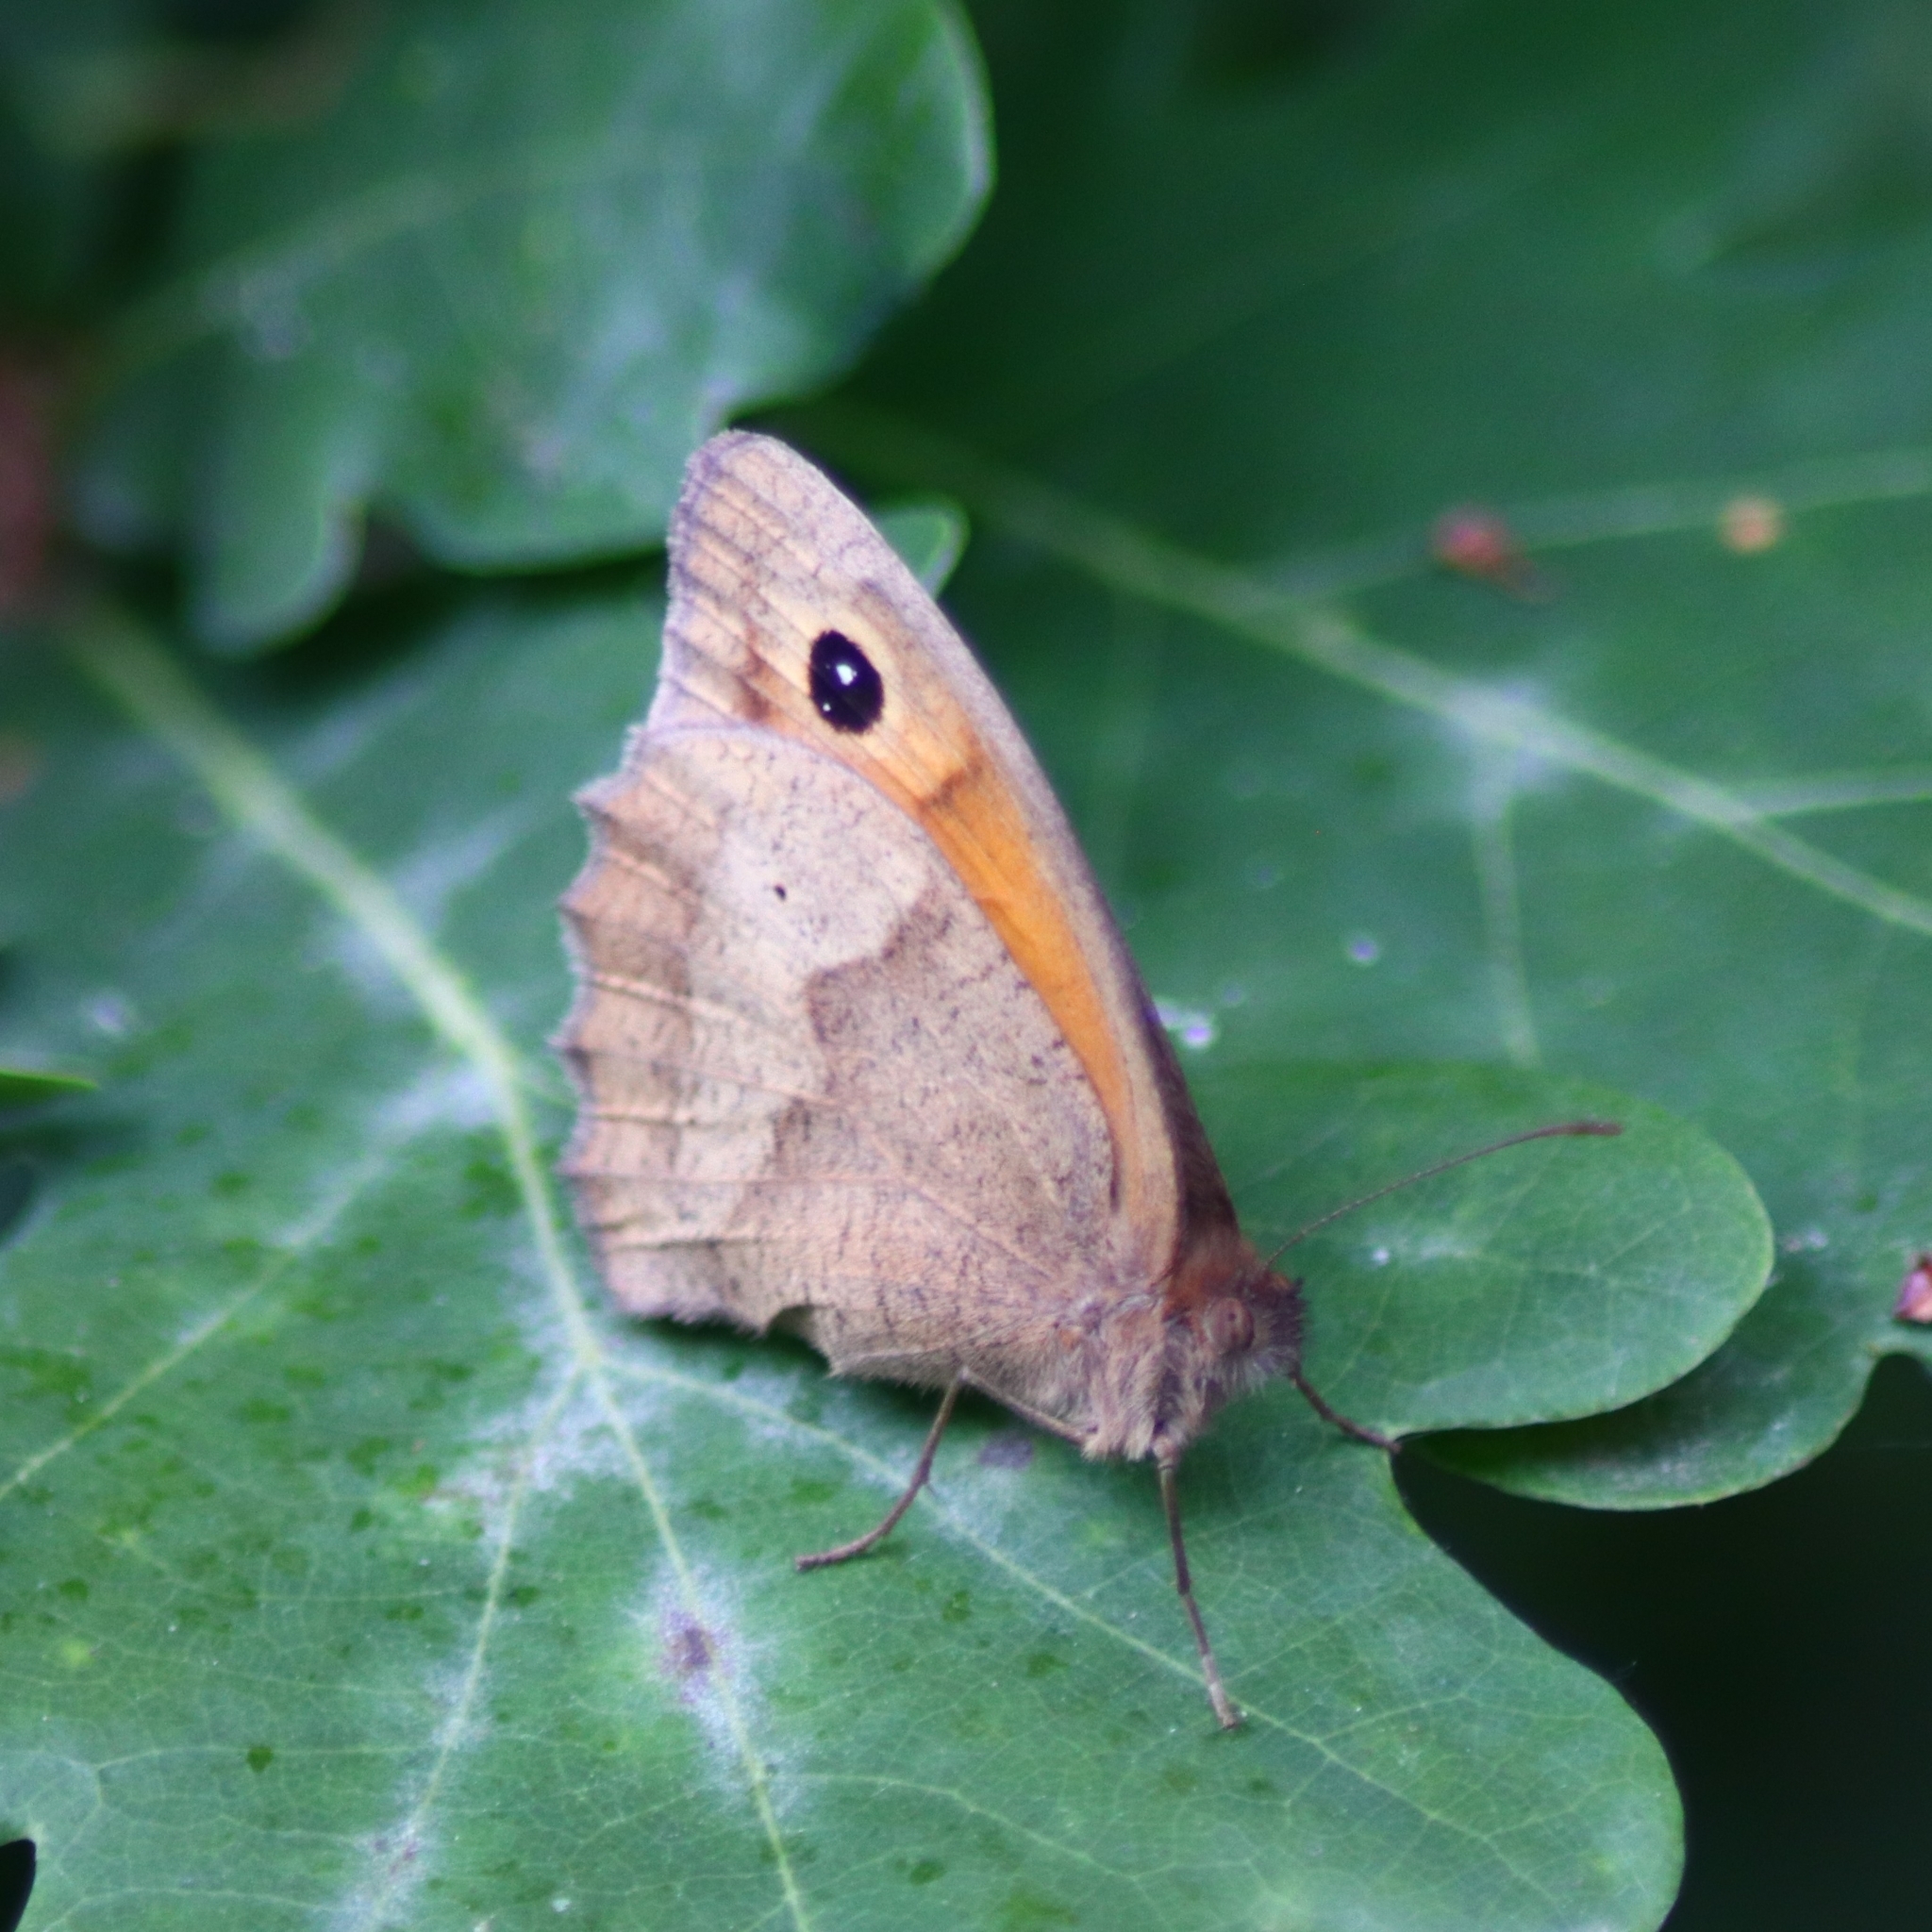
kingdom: Animalia
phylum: Arthropoda
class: Insecta
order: Lepidoptera
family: Nymphalidae
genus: Maniola
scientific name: Maniola jurtina
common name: Meadow brown
